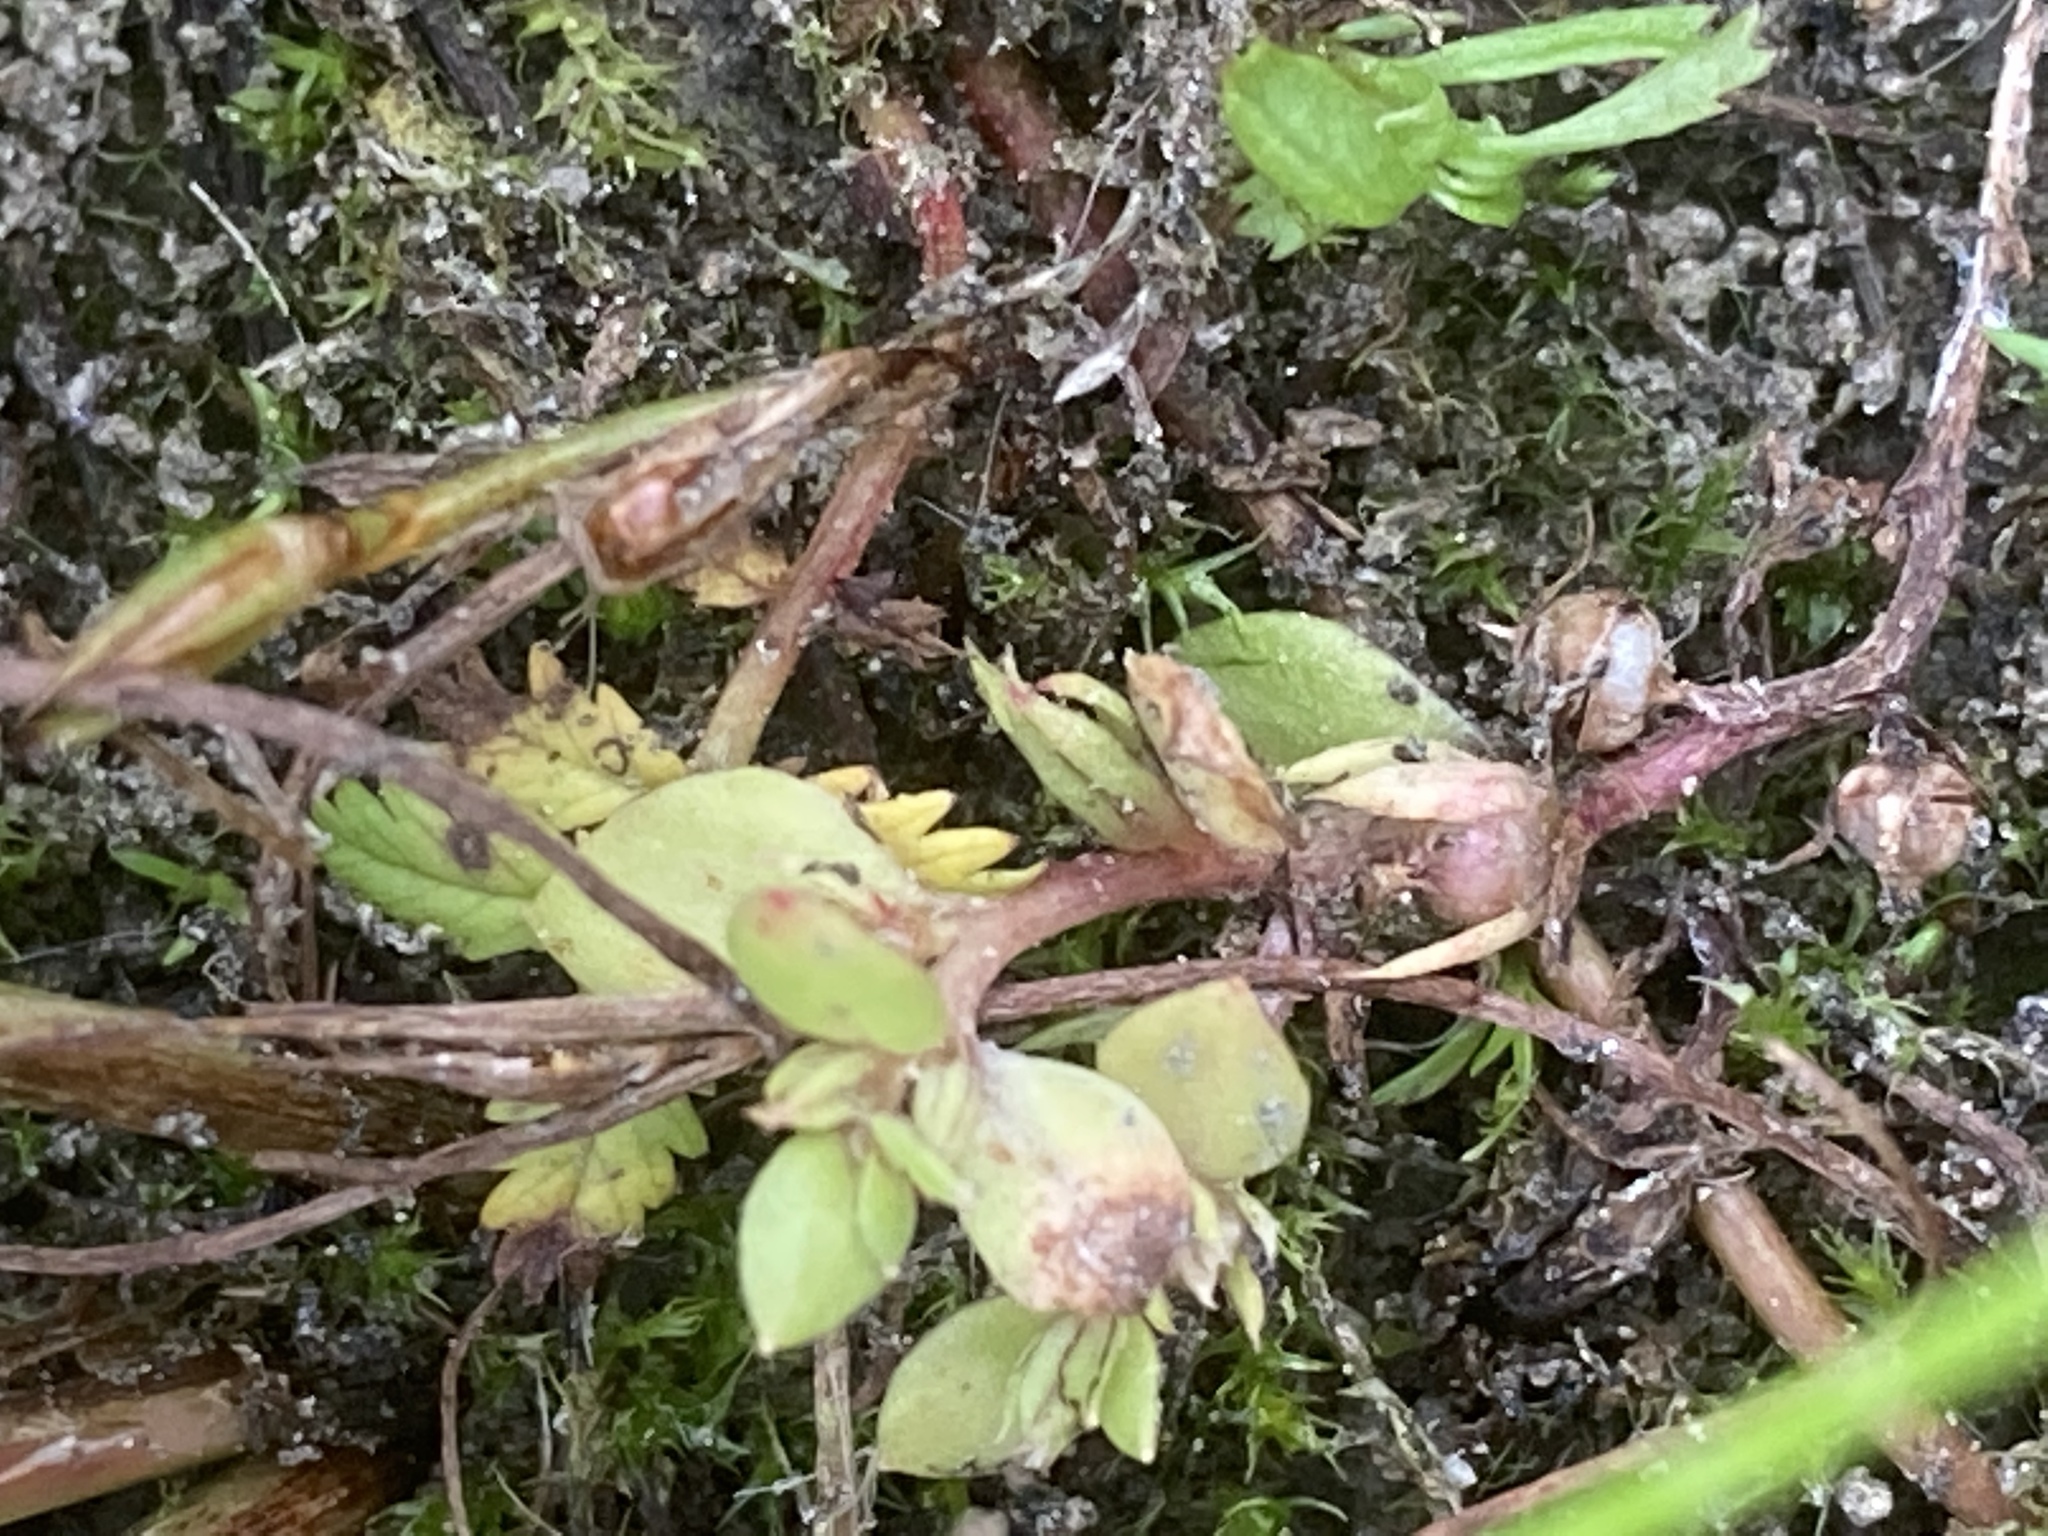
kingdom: Plantae
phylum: Tracheophyta
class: Magnoliopsida
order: Ericales
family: Primulaceae
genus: Lysimachia
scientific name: Lysimachia minima
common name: Chaffweed
